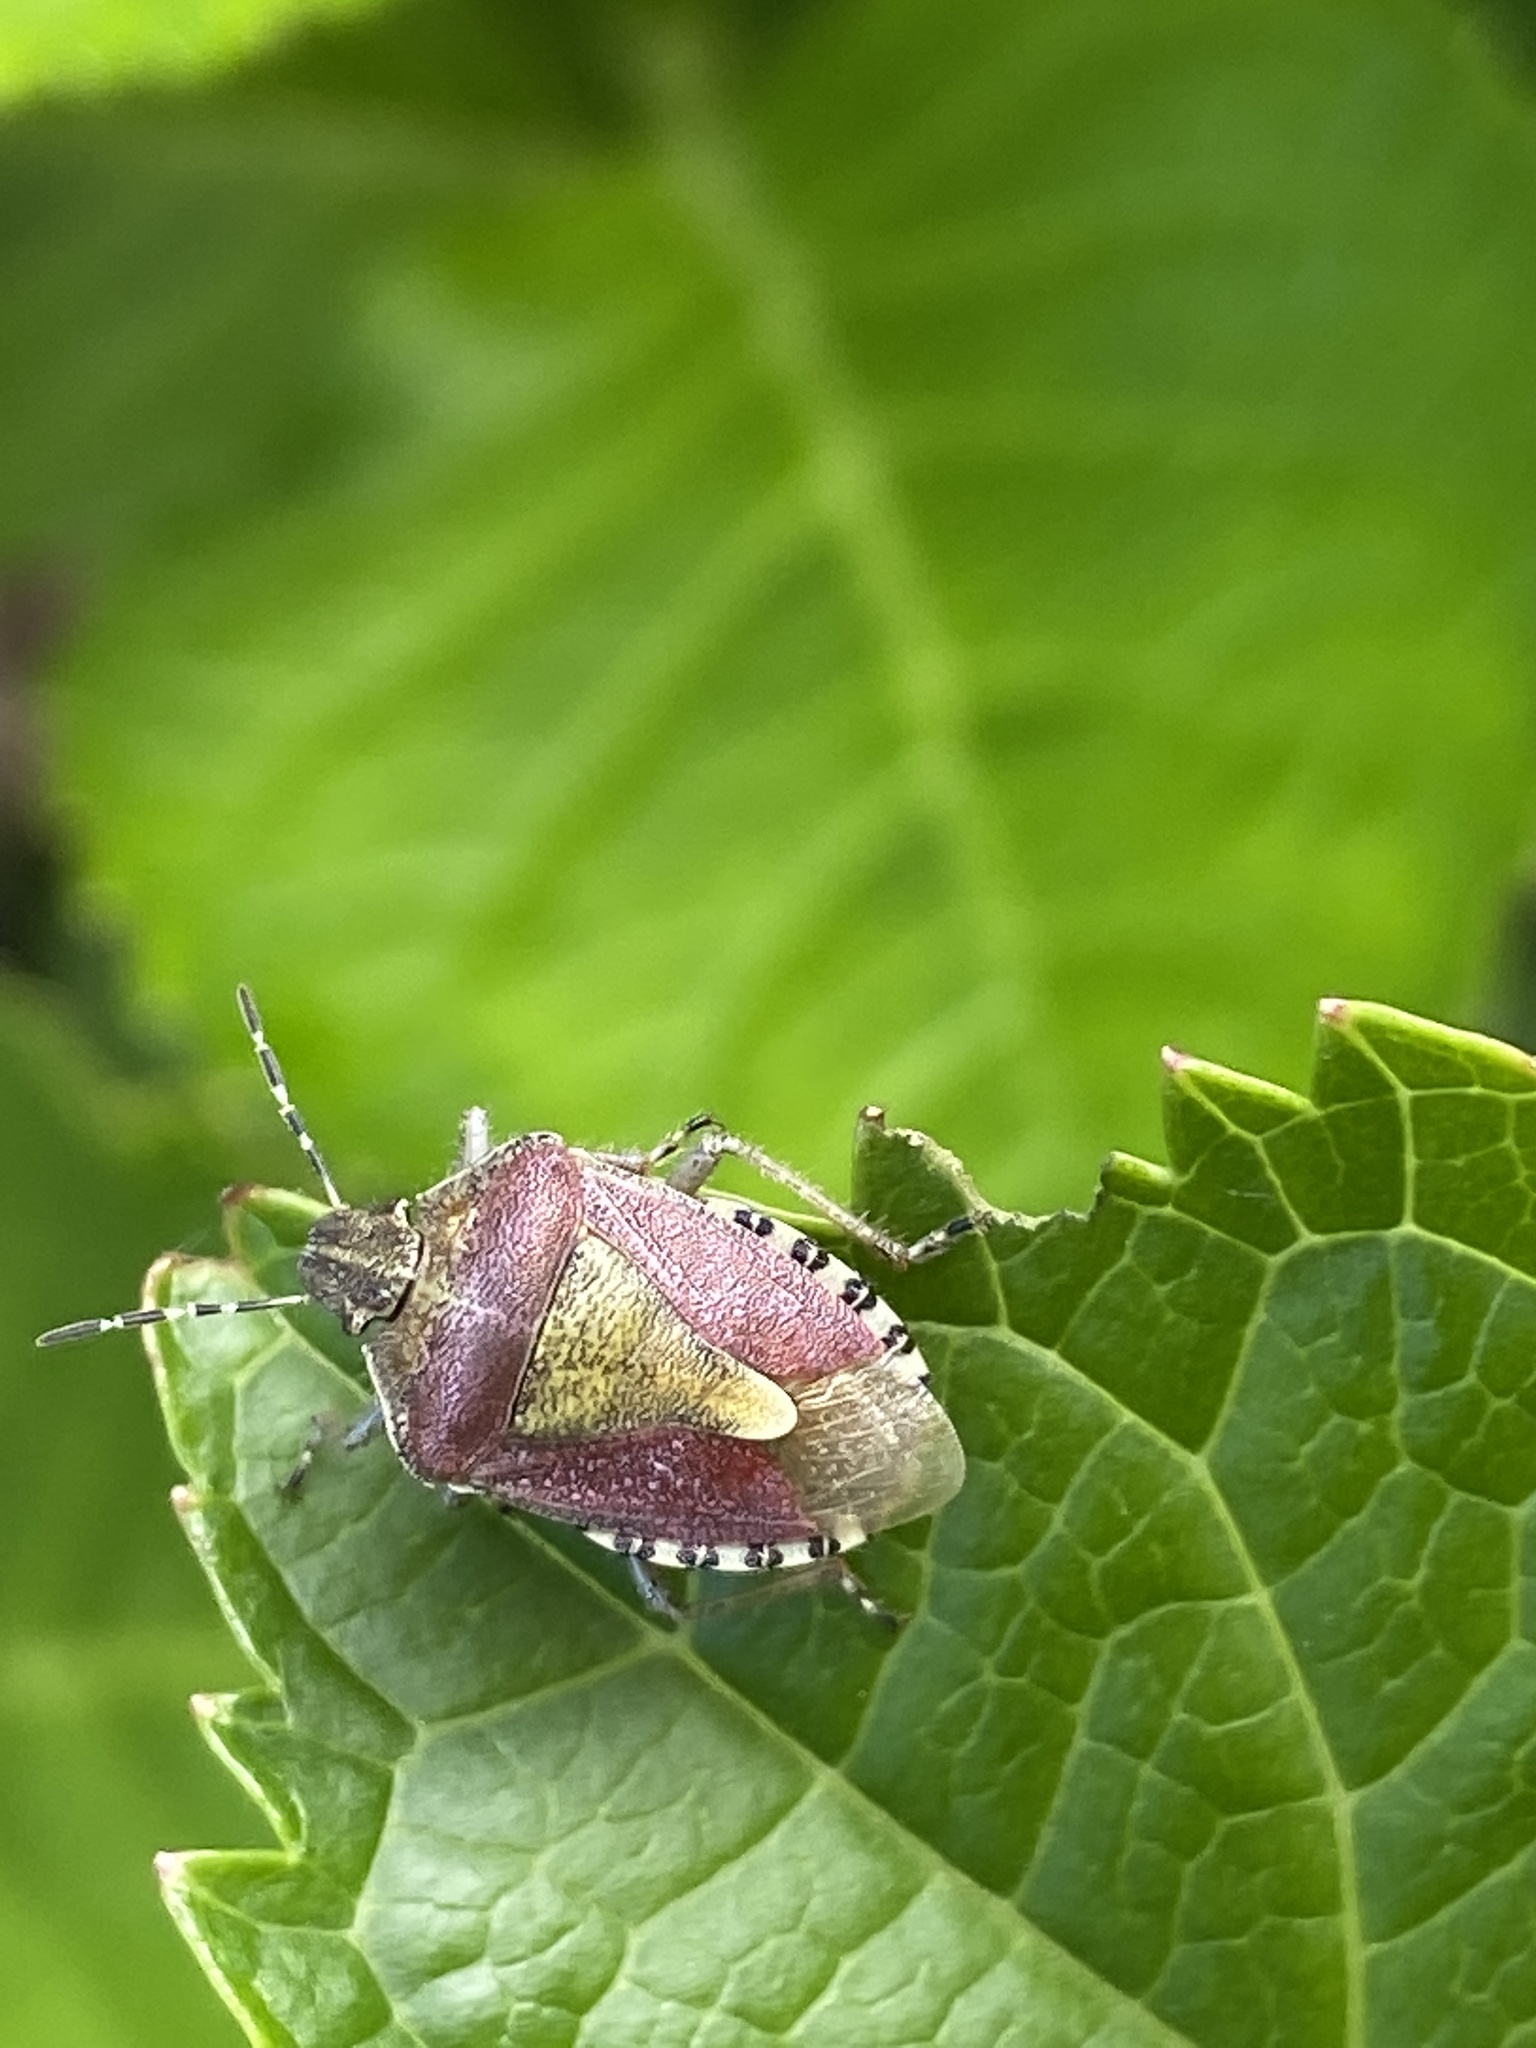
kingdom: Animalia
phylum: Arthropoda
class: Insecta
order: Hemiptera
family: Pentatomidae
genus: Dolycoris
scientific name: Dolycoris baccarum
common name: Sloe bug
